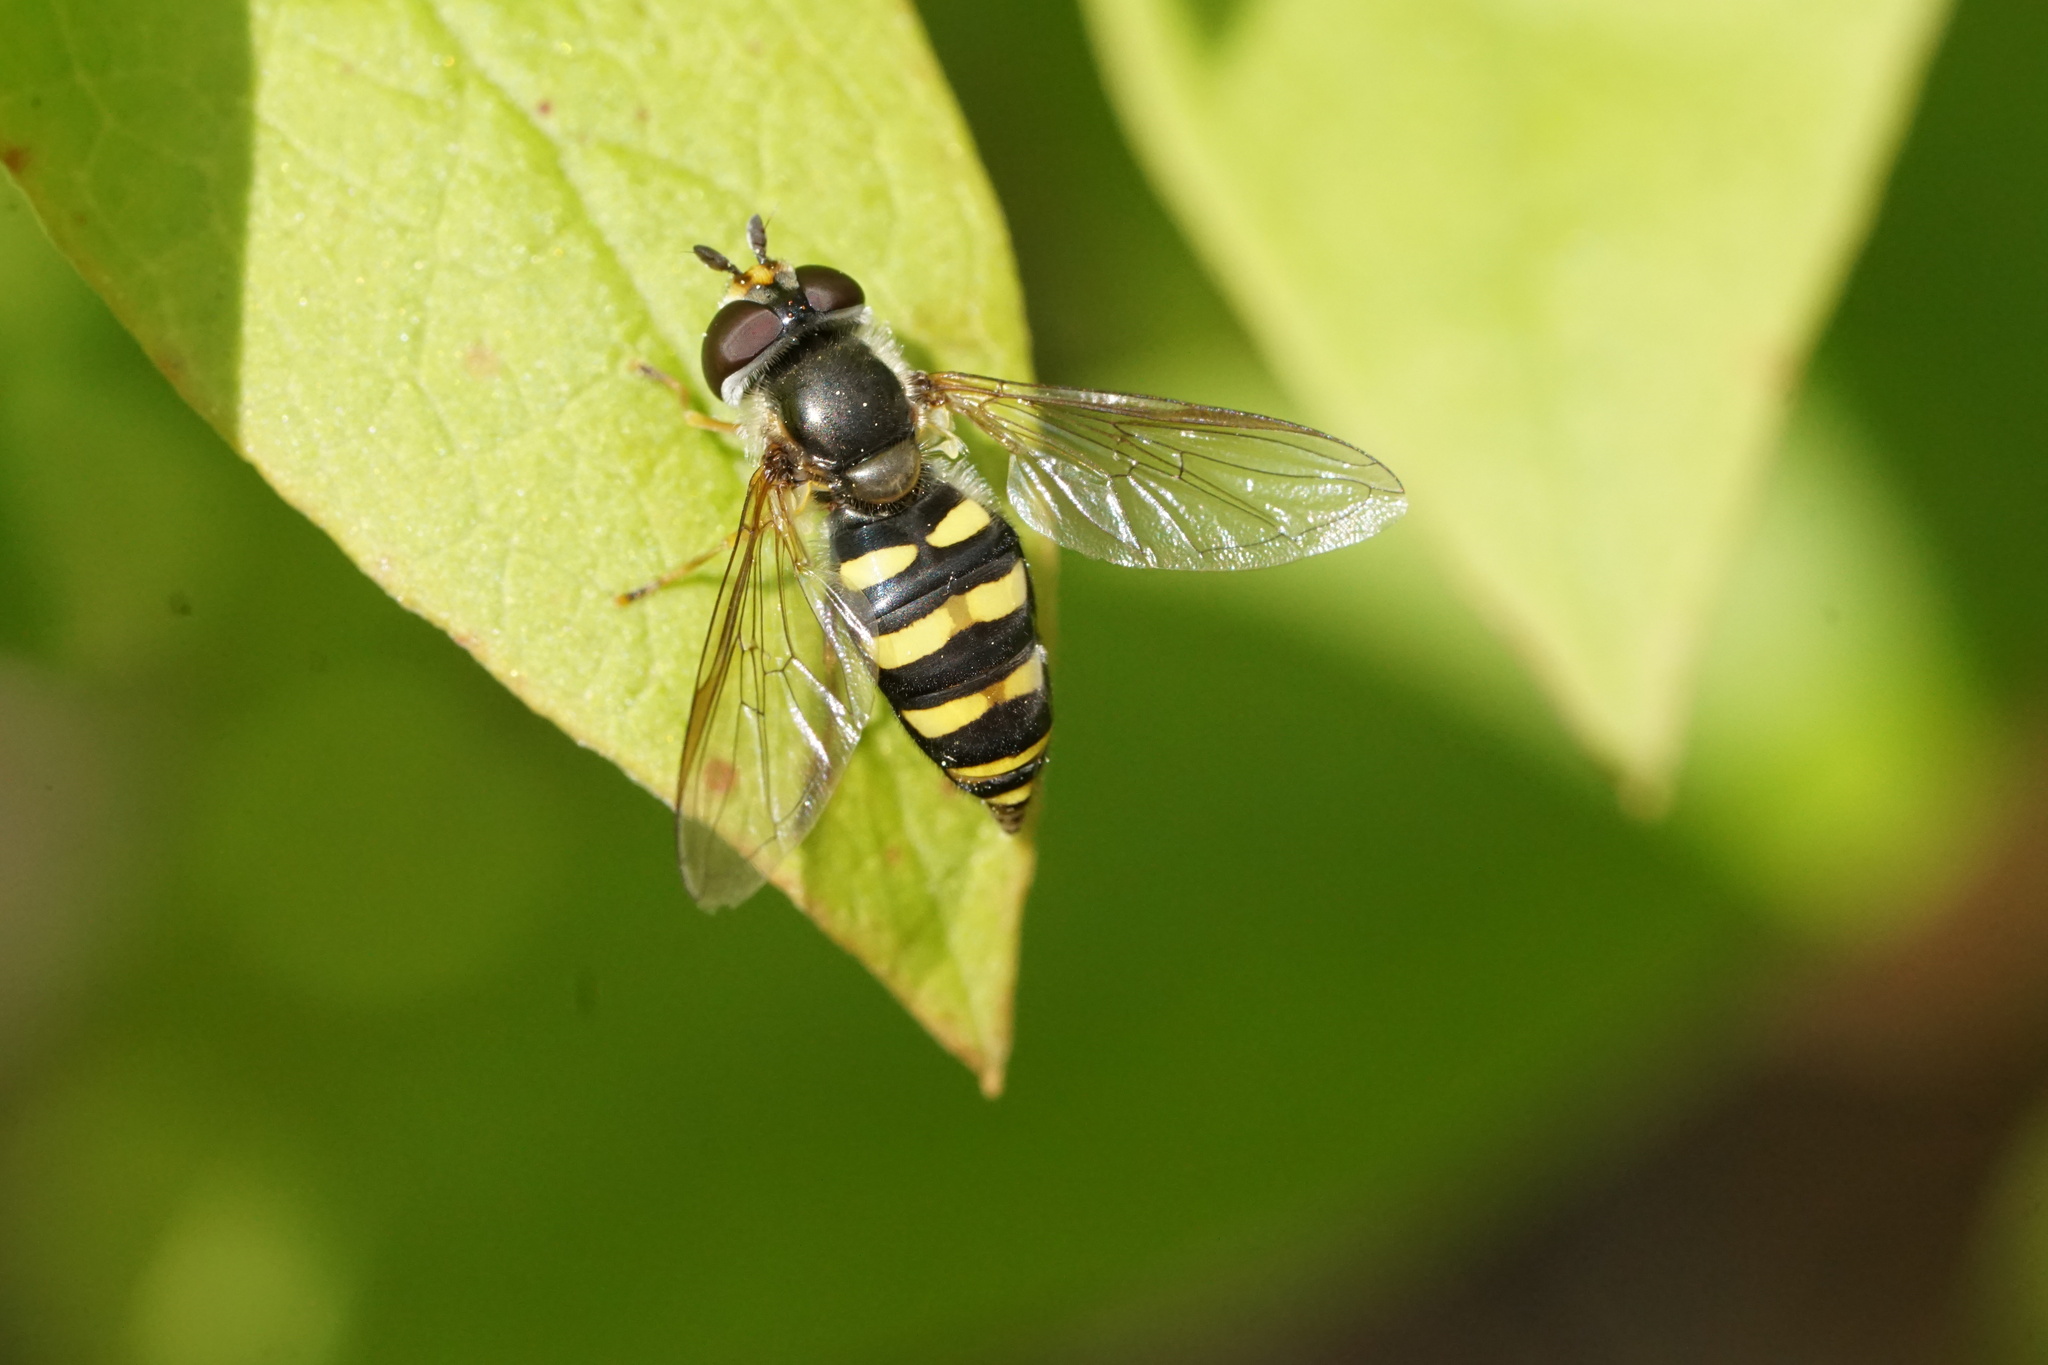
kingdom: Animalia
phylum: Arthropoda
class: Insecta
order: Diptera
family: Syrphidae
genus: Eupeodes
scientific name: Eupeodes
